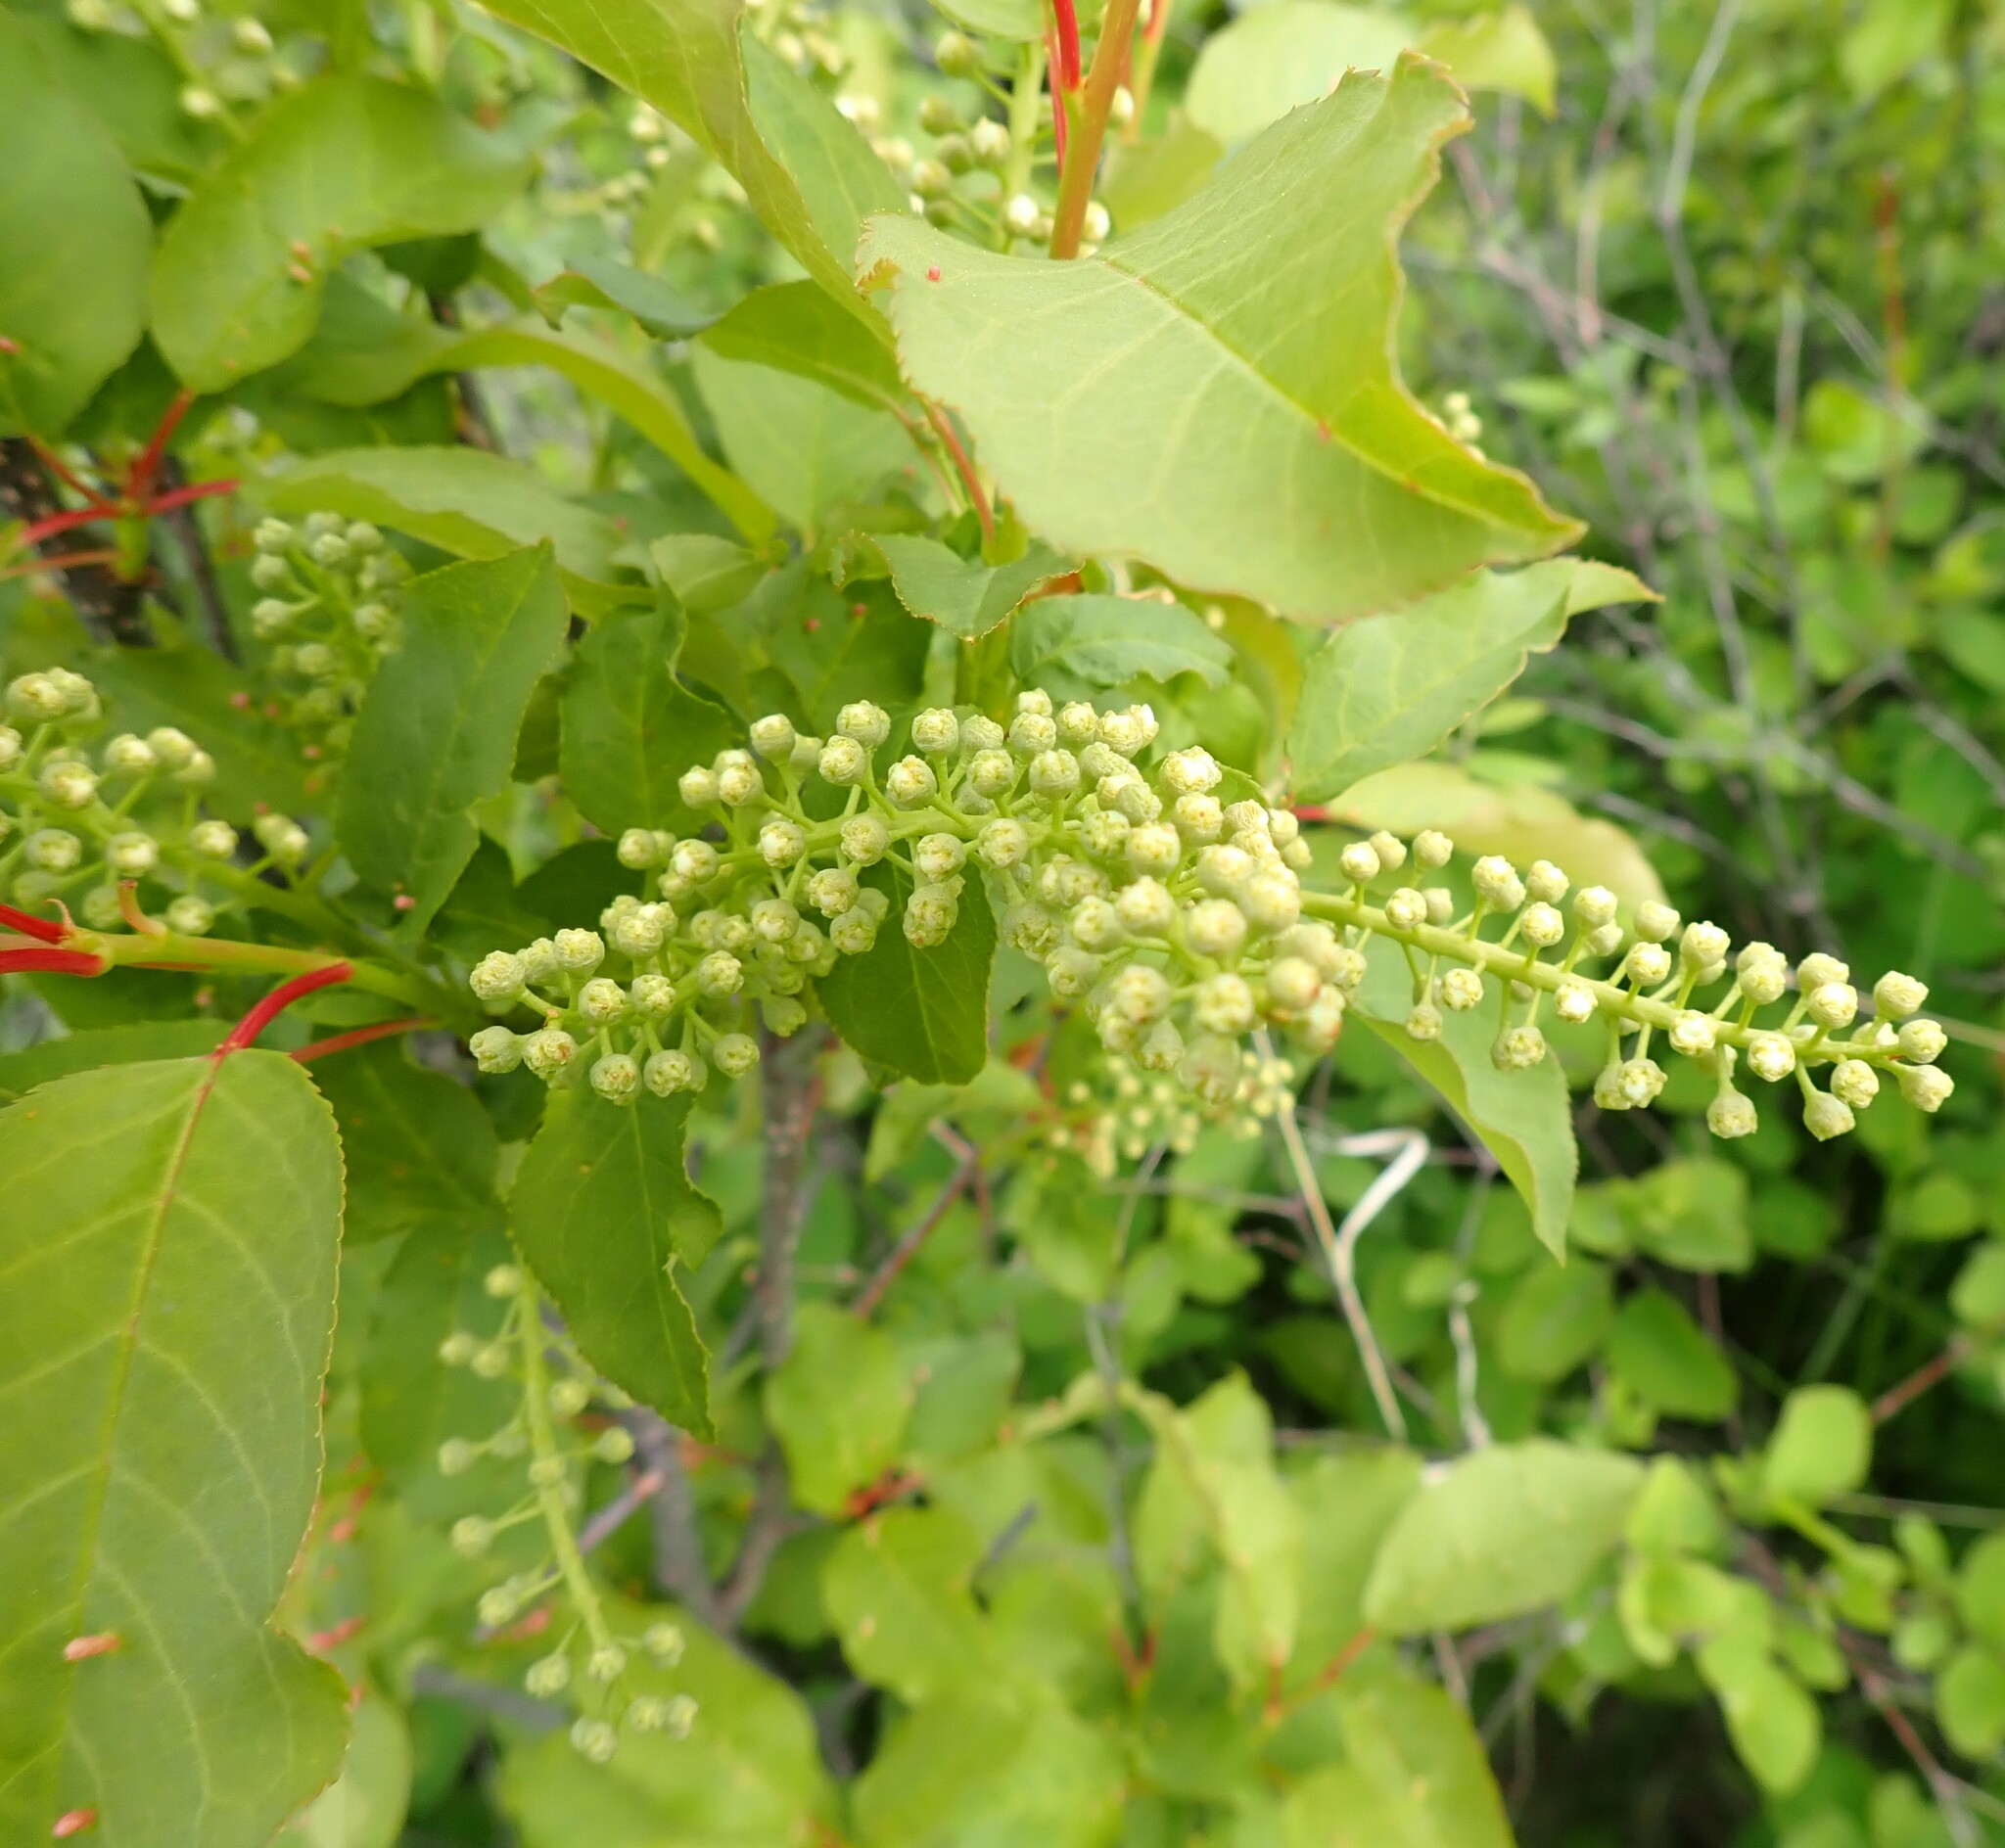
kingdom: Plantae
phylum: Tracheophyta
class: Magnoliopsida
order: Rosales
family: Rosaceae
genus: Prunus
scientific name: Prunus virginiana
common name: Chokecherry
